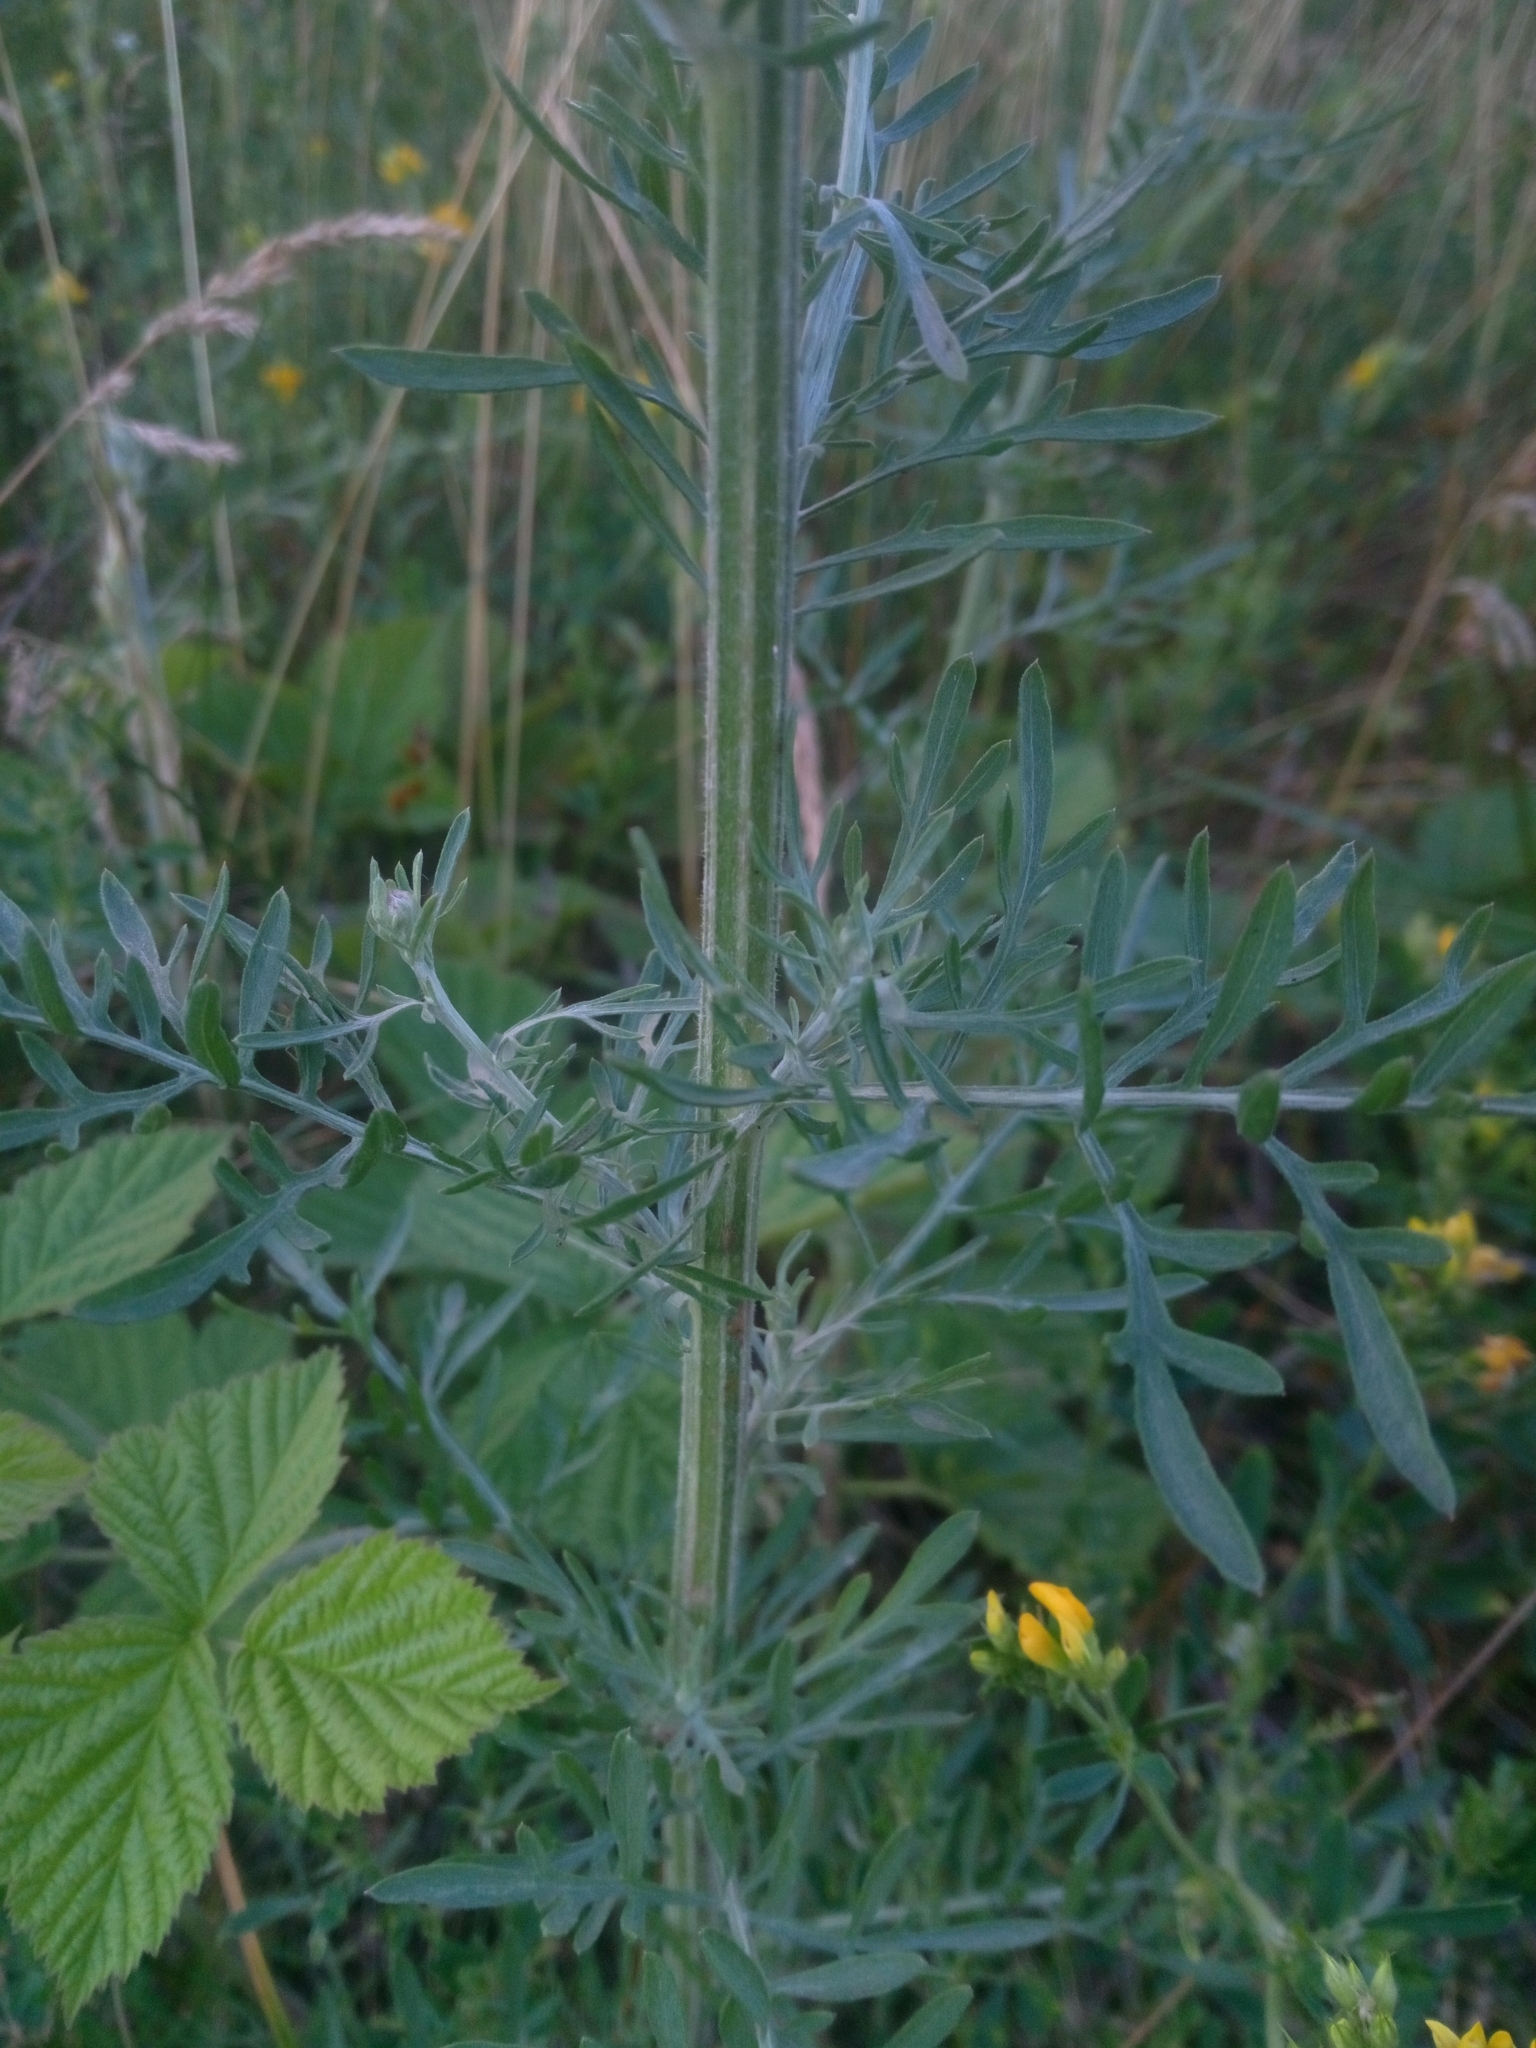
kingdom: Plantae
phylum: Tracheophyta
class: Magnoliopsida
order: Asterales
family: Asteraceae
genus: Centaurea
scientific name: Centaurea stoebe
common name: Spotted knapweed
